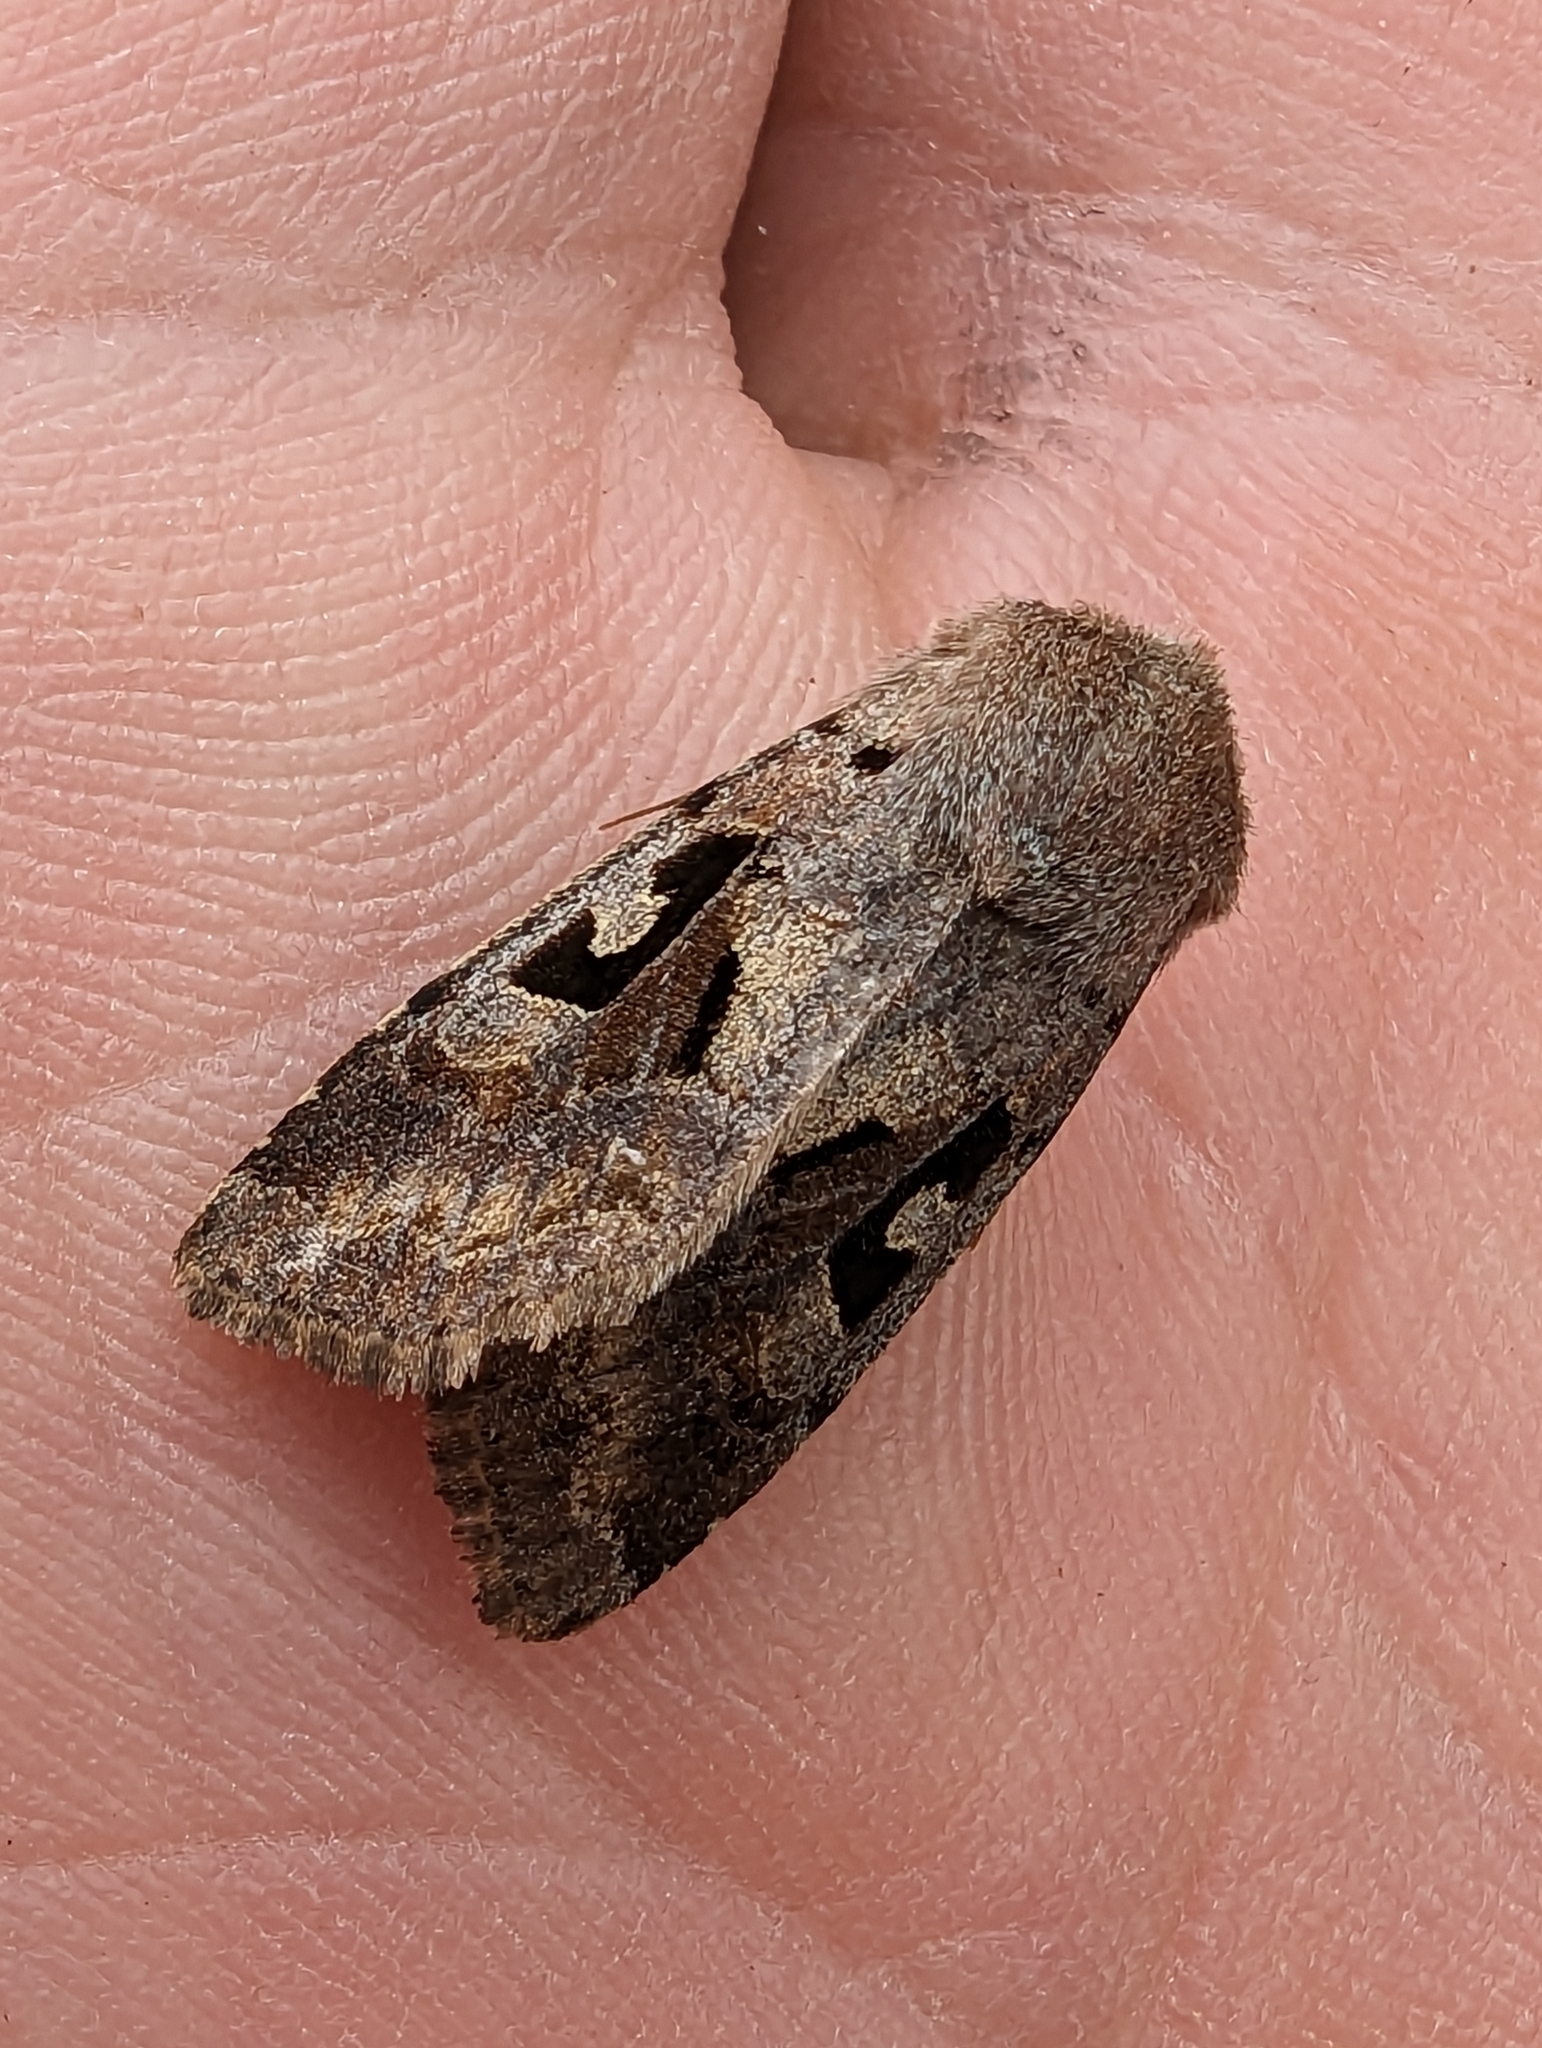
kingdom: Animalia
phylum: Arthropoda
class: Insecta
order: Lepidoptera
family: Noctuidae
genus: Orthosia
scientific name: Orthosia gothica
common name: Hebrew character
